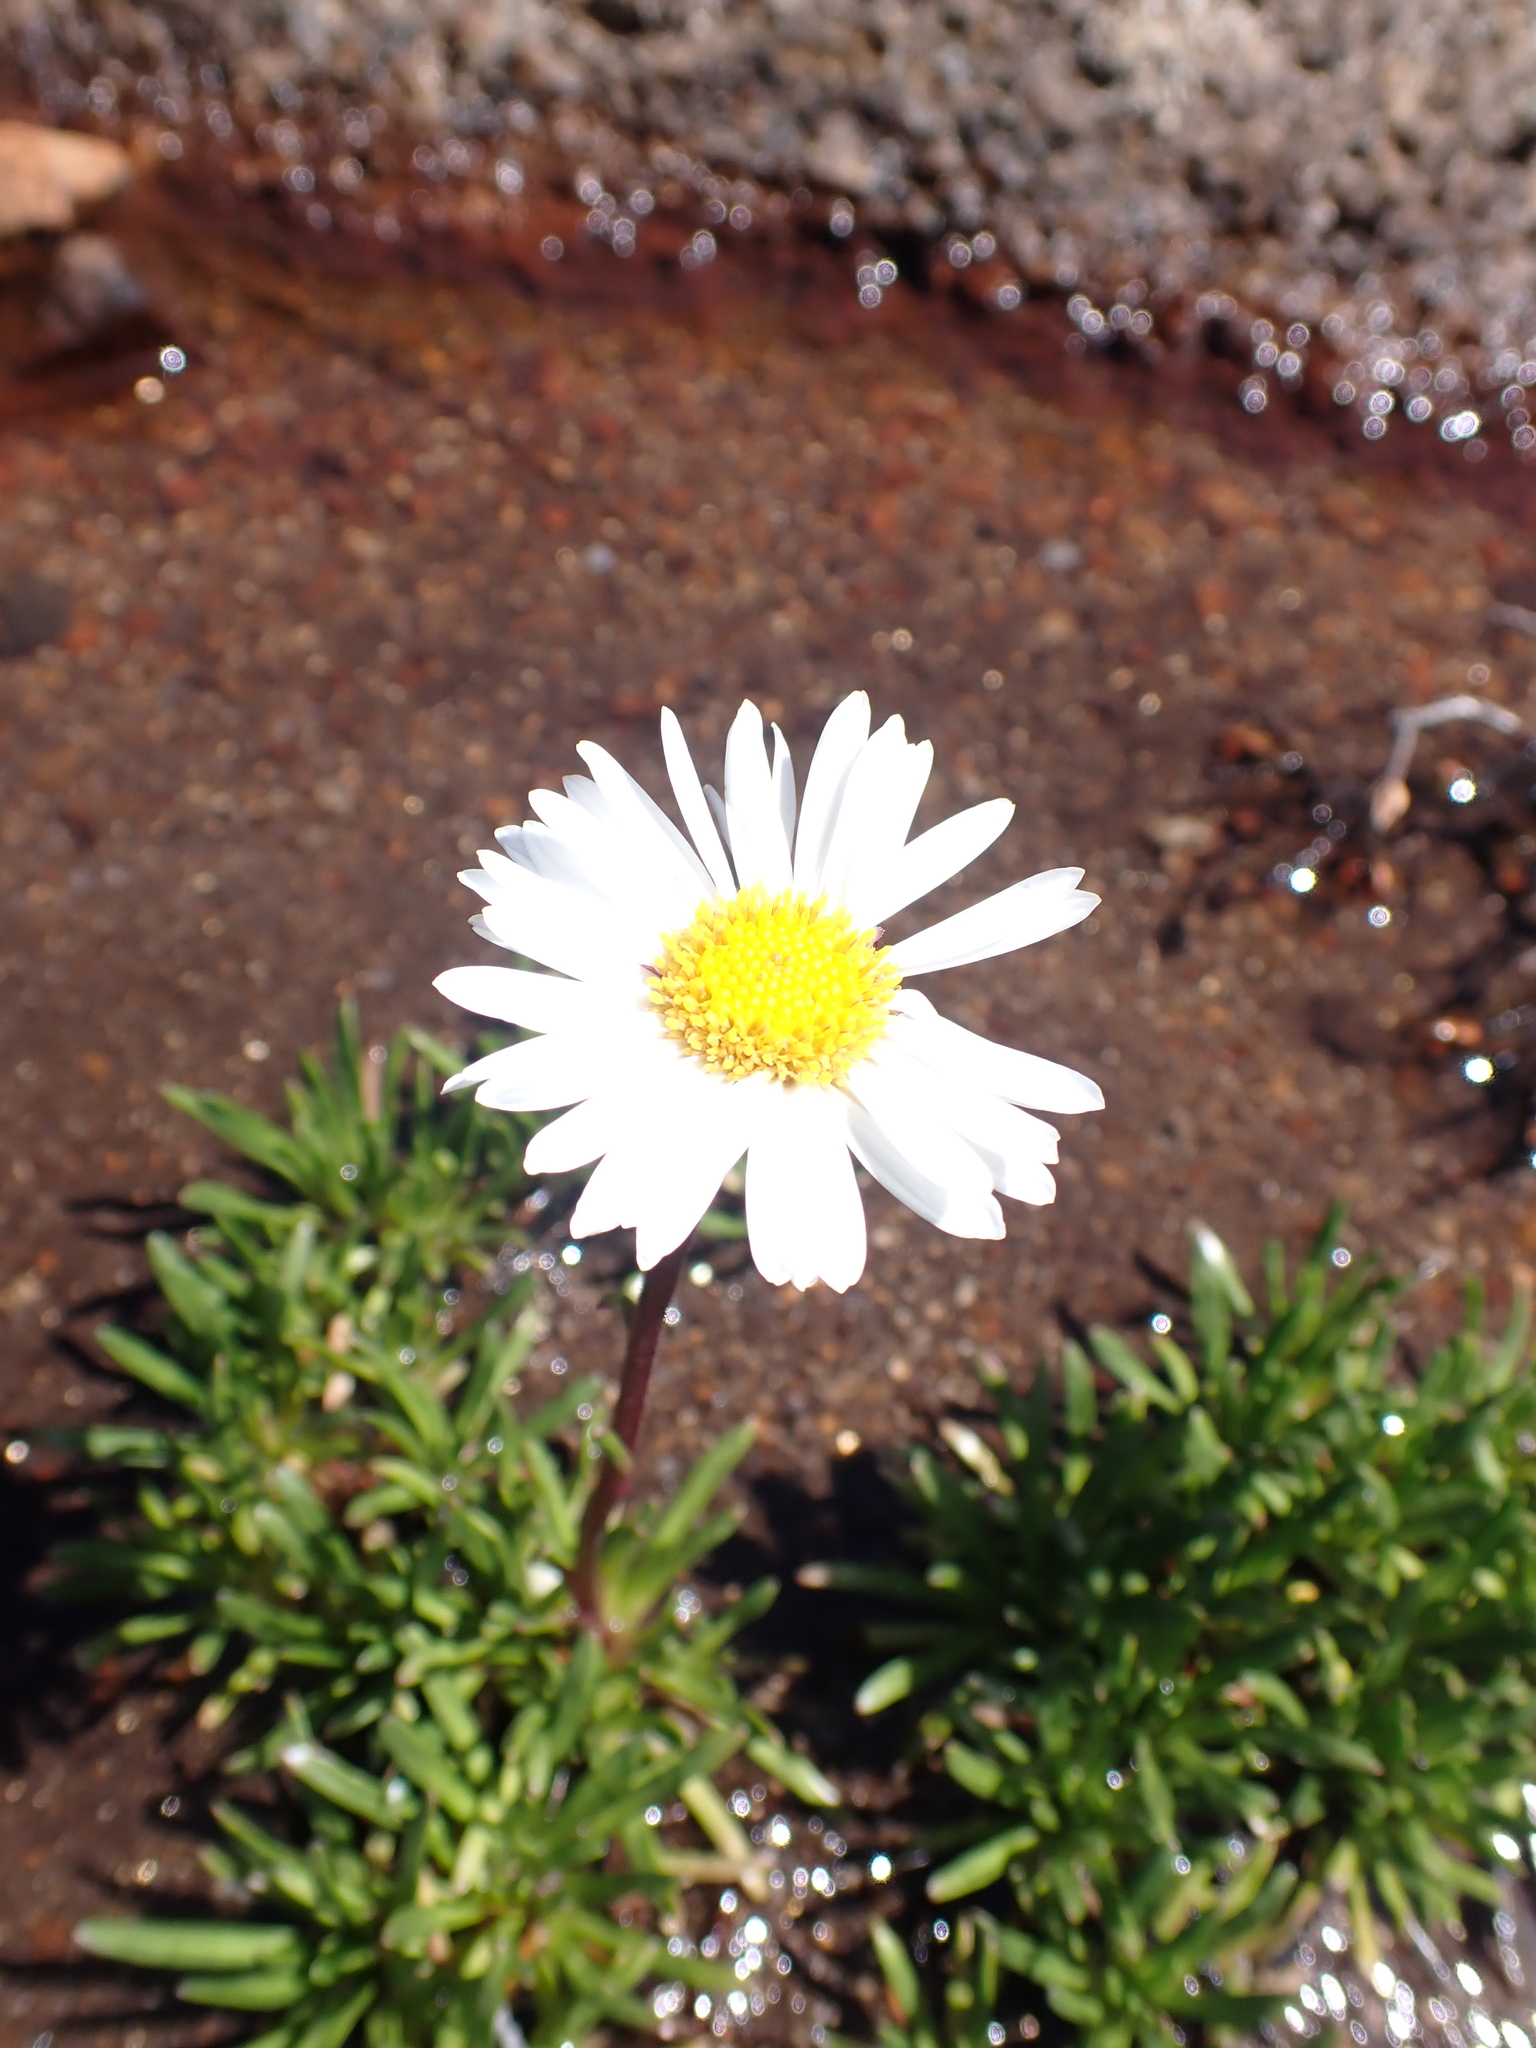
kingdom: Plantae
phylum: Tracheophyta
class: Magnoliopsida
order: Asterales
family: Asteraceae
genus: Brachyscome
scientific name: Brachyscome stolonifera
